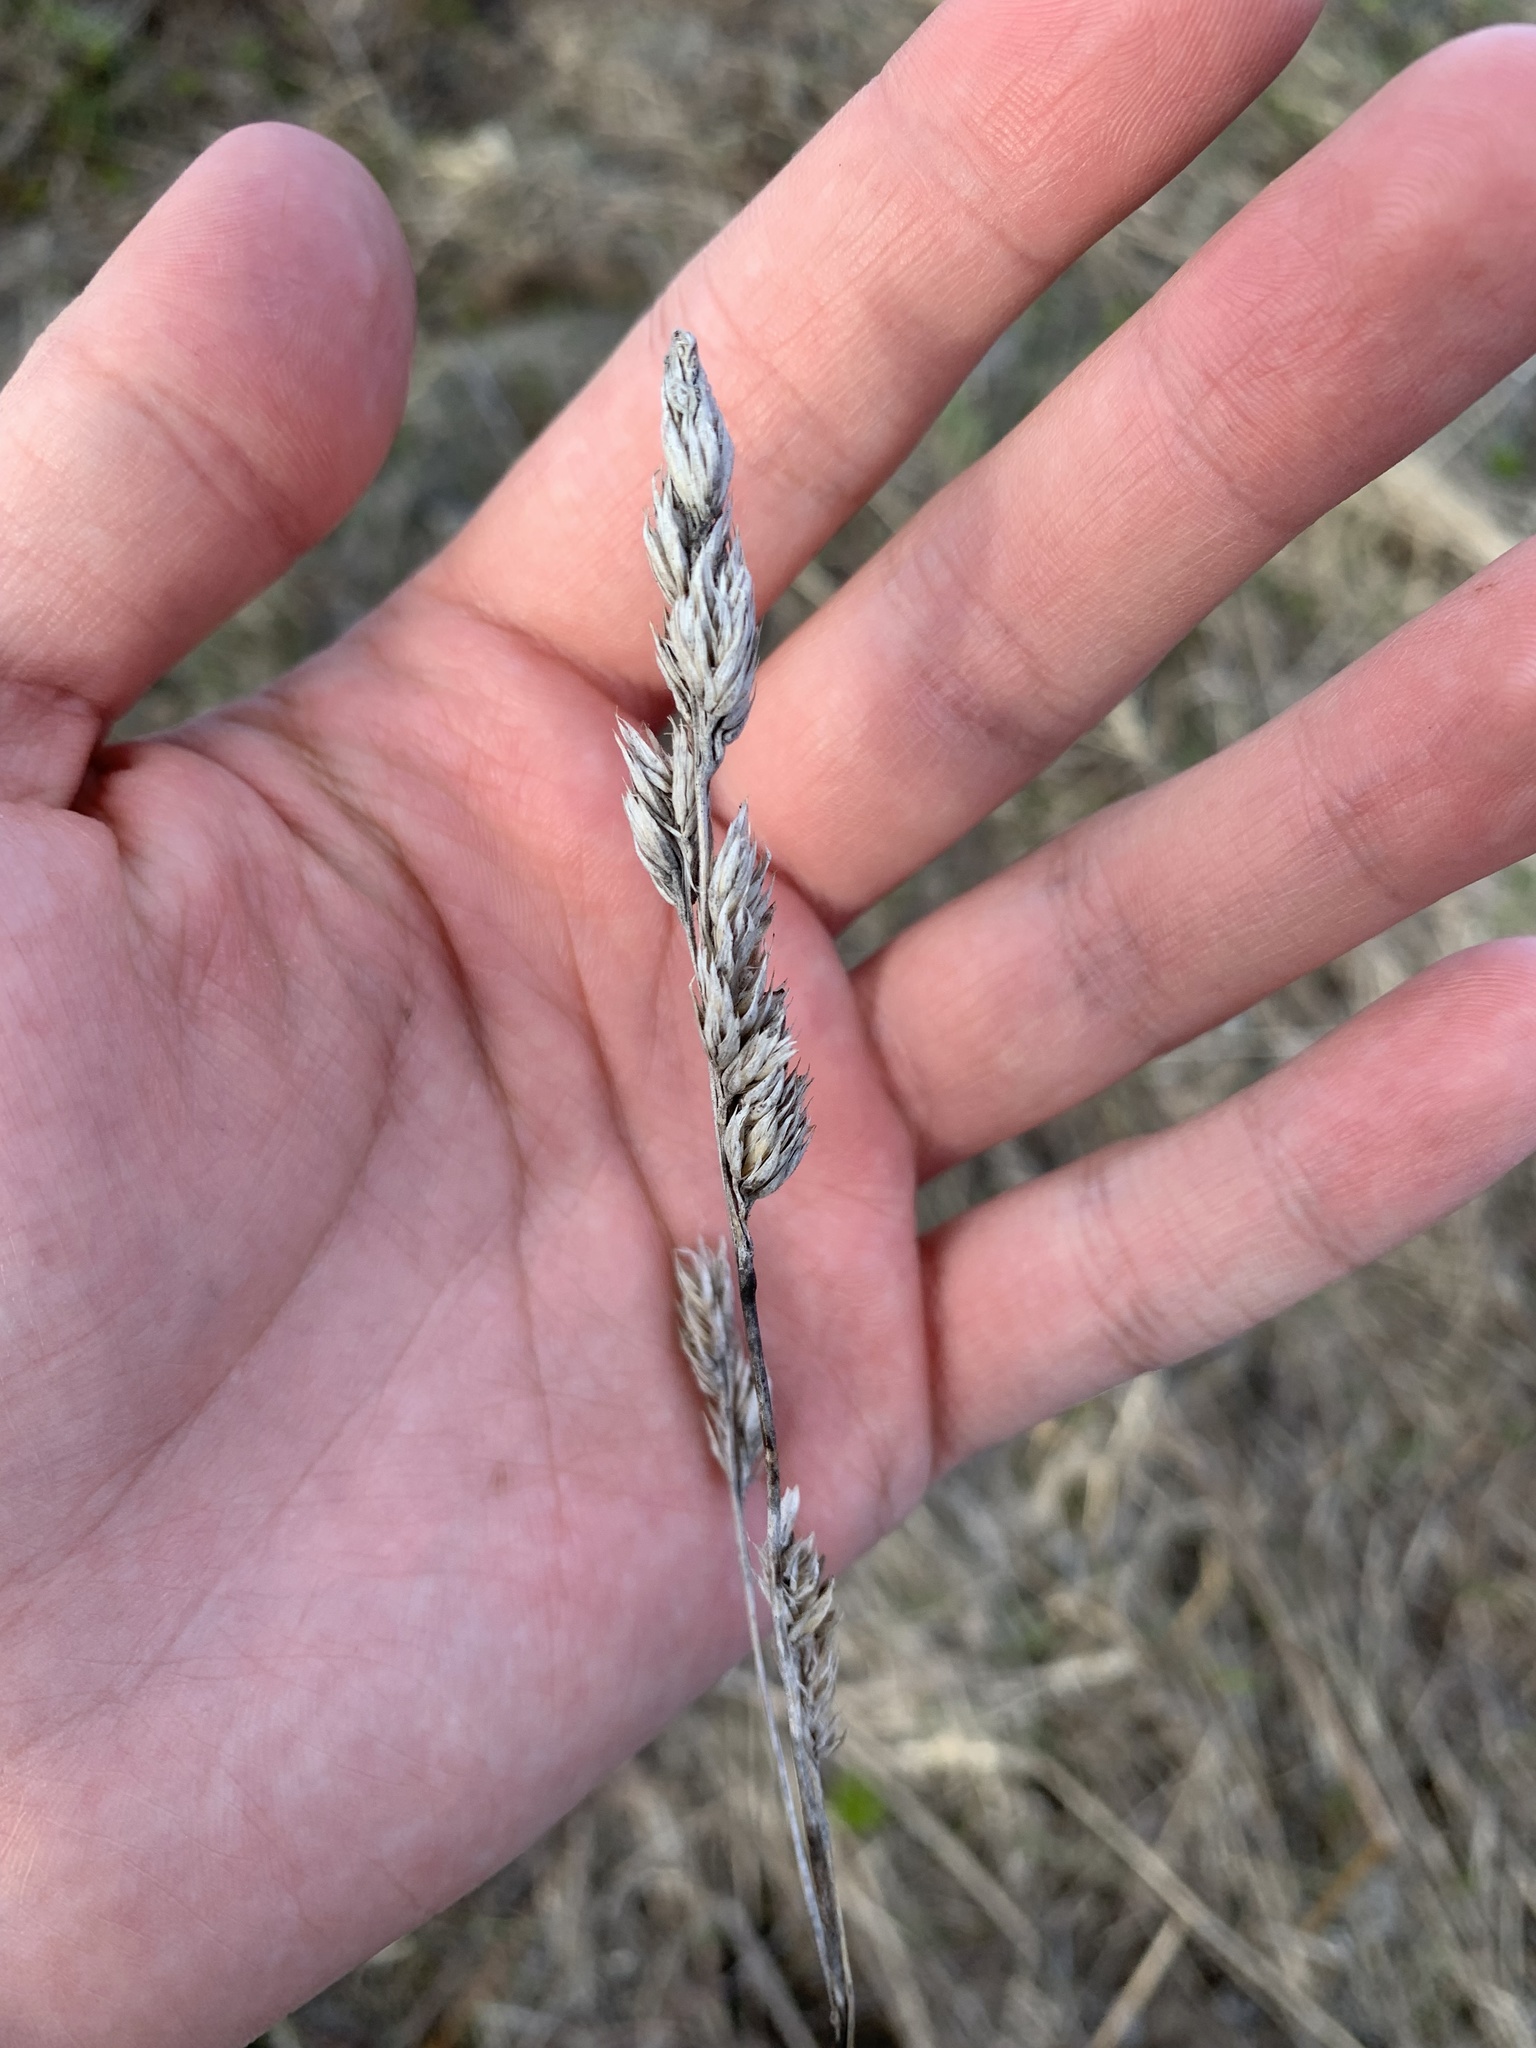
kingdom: Plantae
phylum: Tracheophyta
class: Liliopsida
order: Poales
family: Poaceae
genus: Dactylis
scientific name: Dactylis glomerata
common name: Orchardgrass
